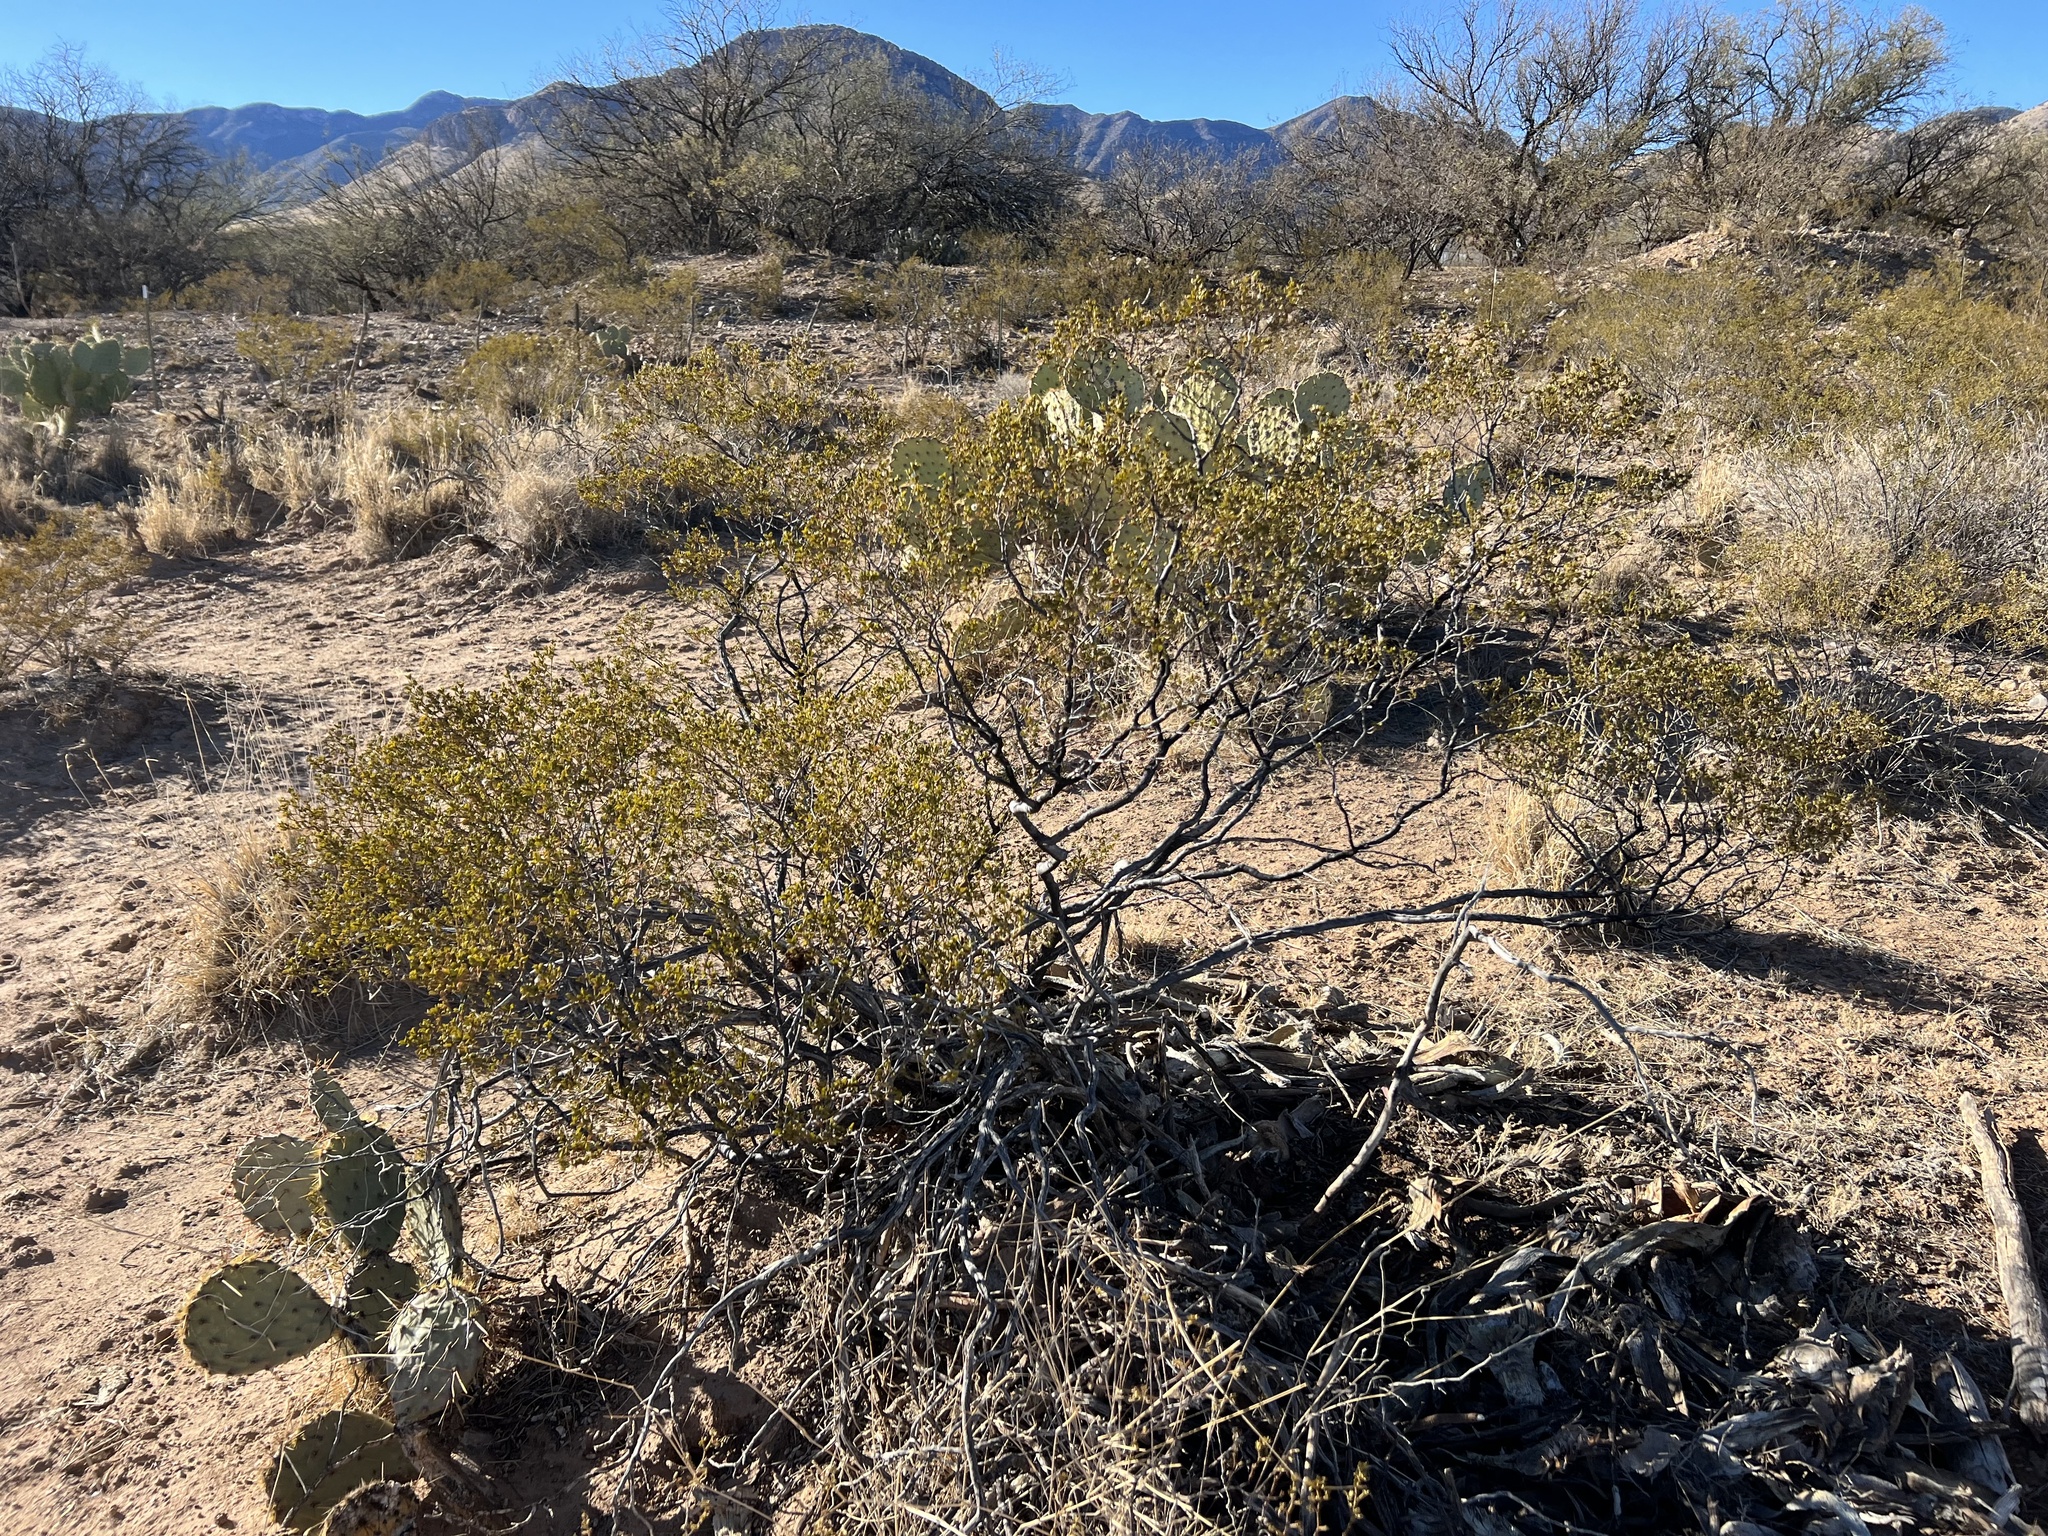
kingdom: Plantae
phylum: Tracheophyta
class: Magnoliopsida
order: Zygophyllales
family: Zygophyllaceae
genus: Larrea
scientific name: Larrea tridentata
